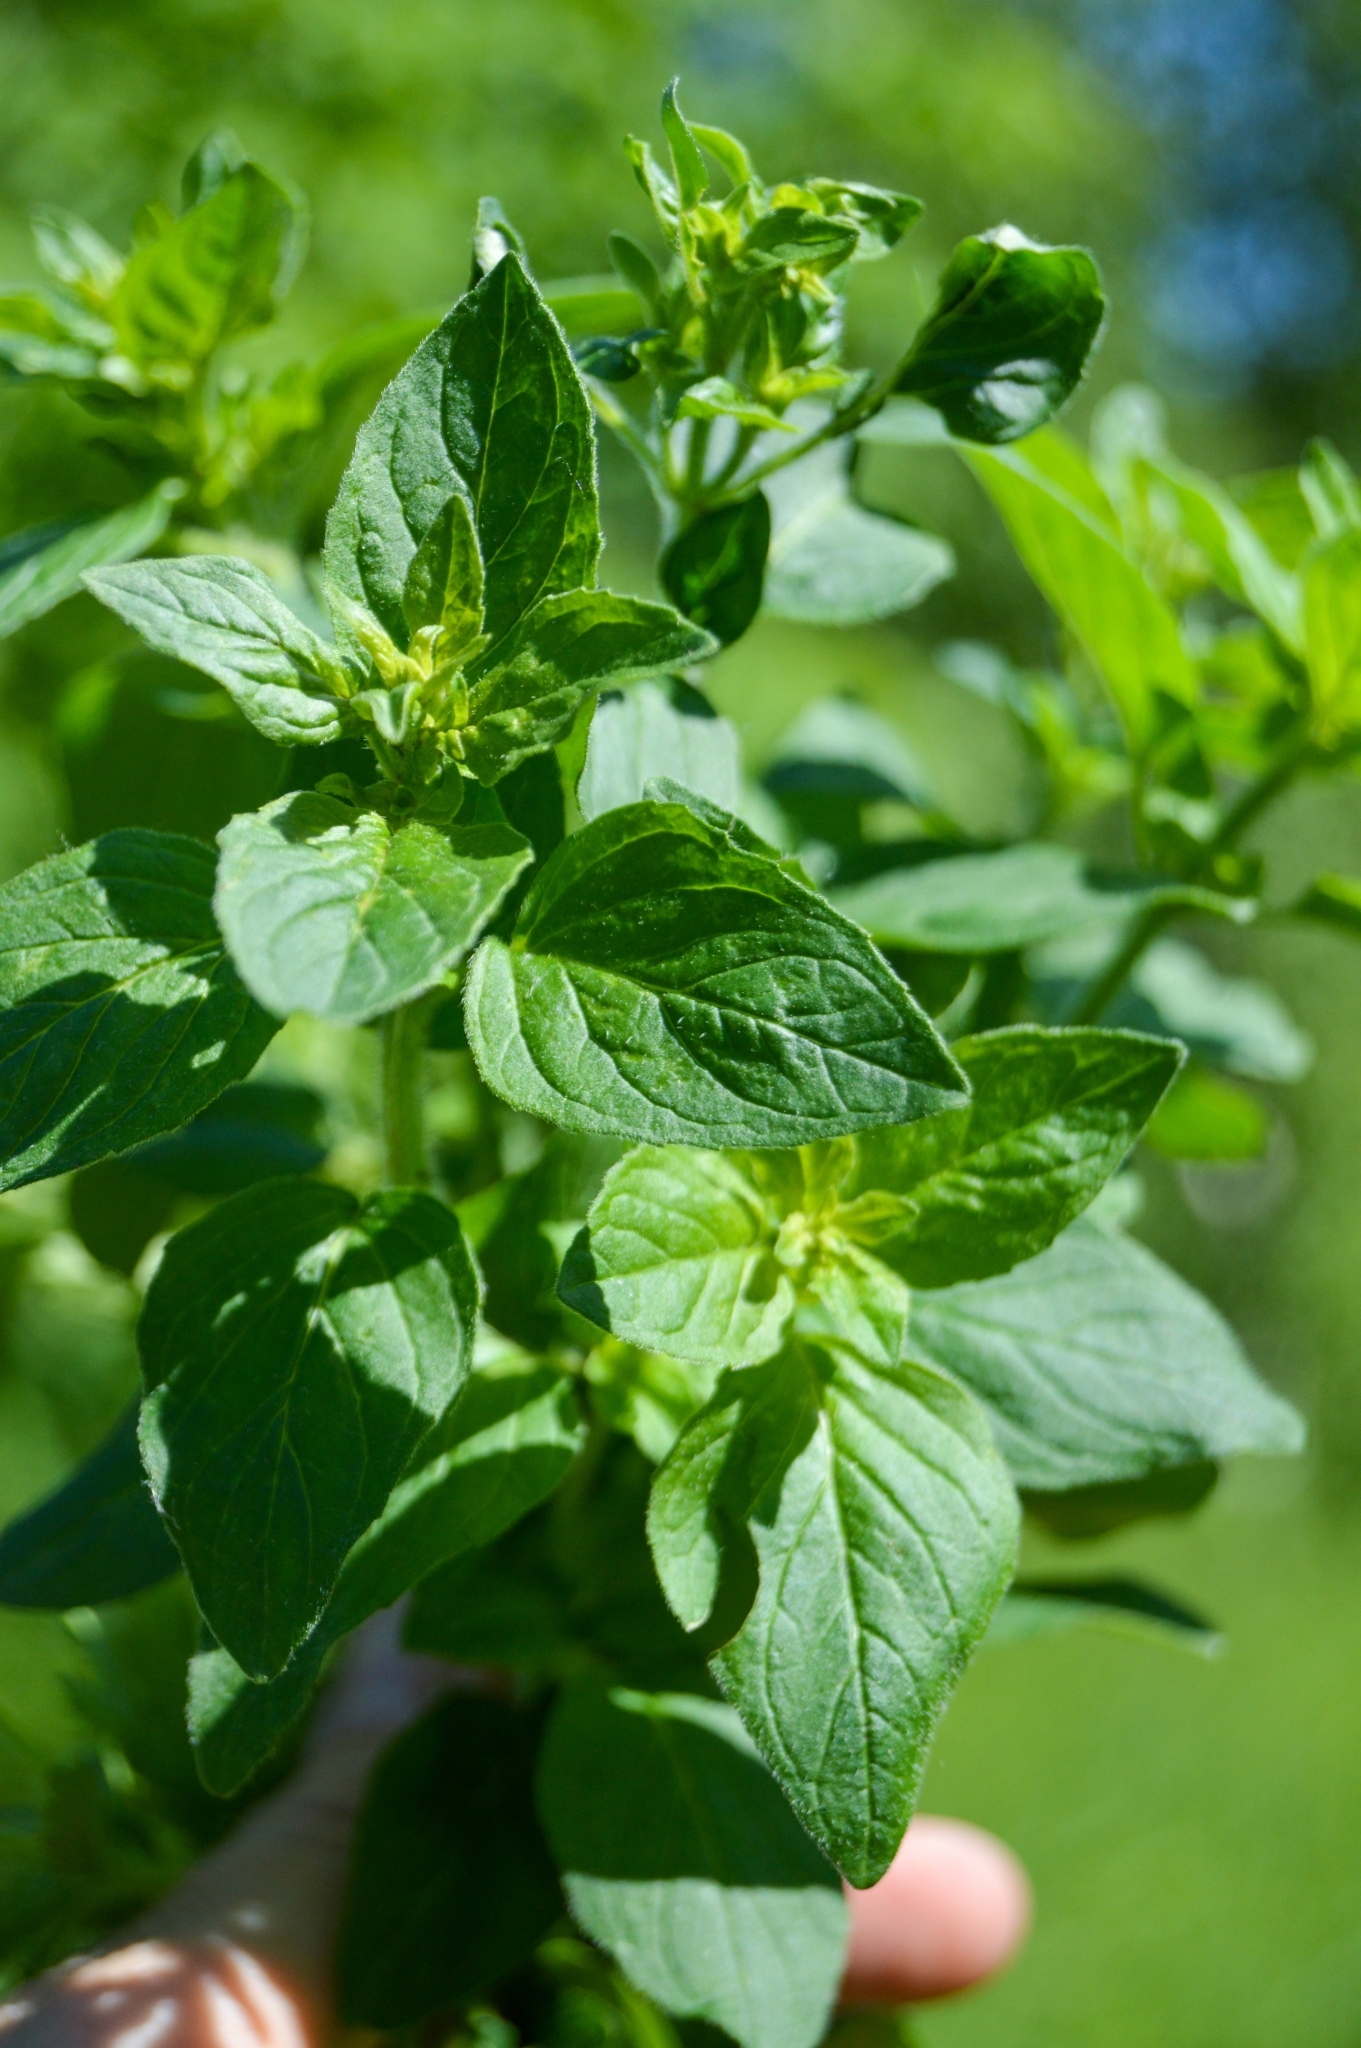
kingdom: Plantae
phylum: Tracheophyta
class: Magnoliopsida
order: Lamiales
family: Lamiaceae
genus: Origanum
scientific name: Origanum vulgare
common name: Wild marjoram
